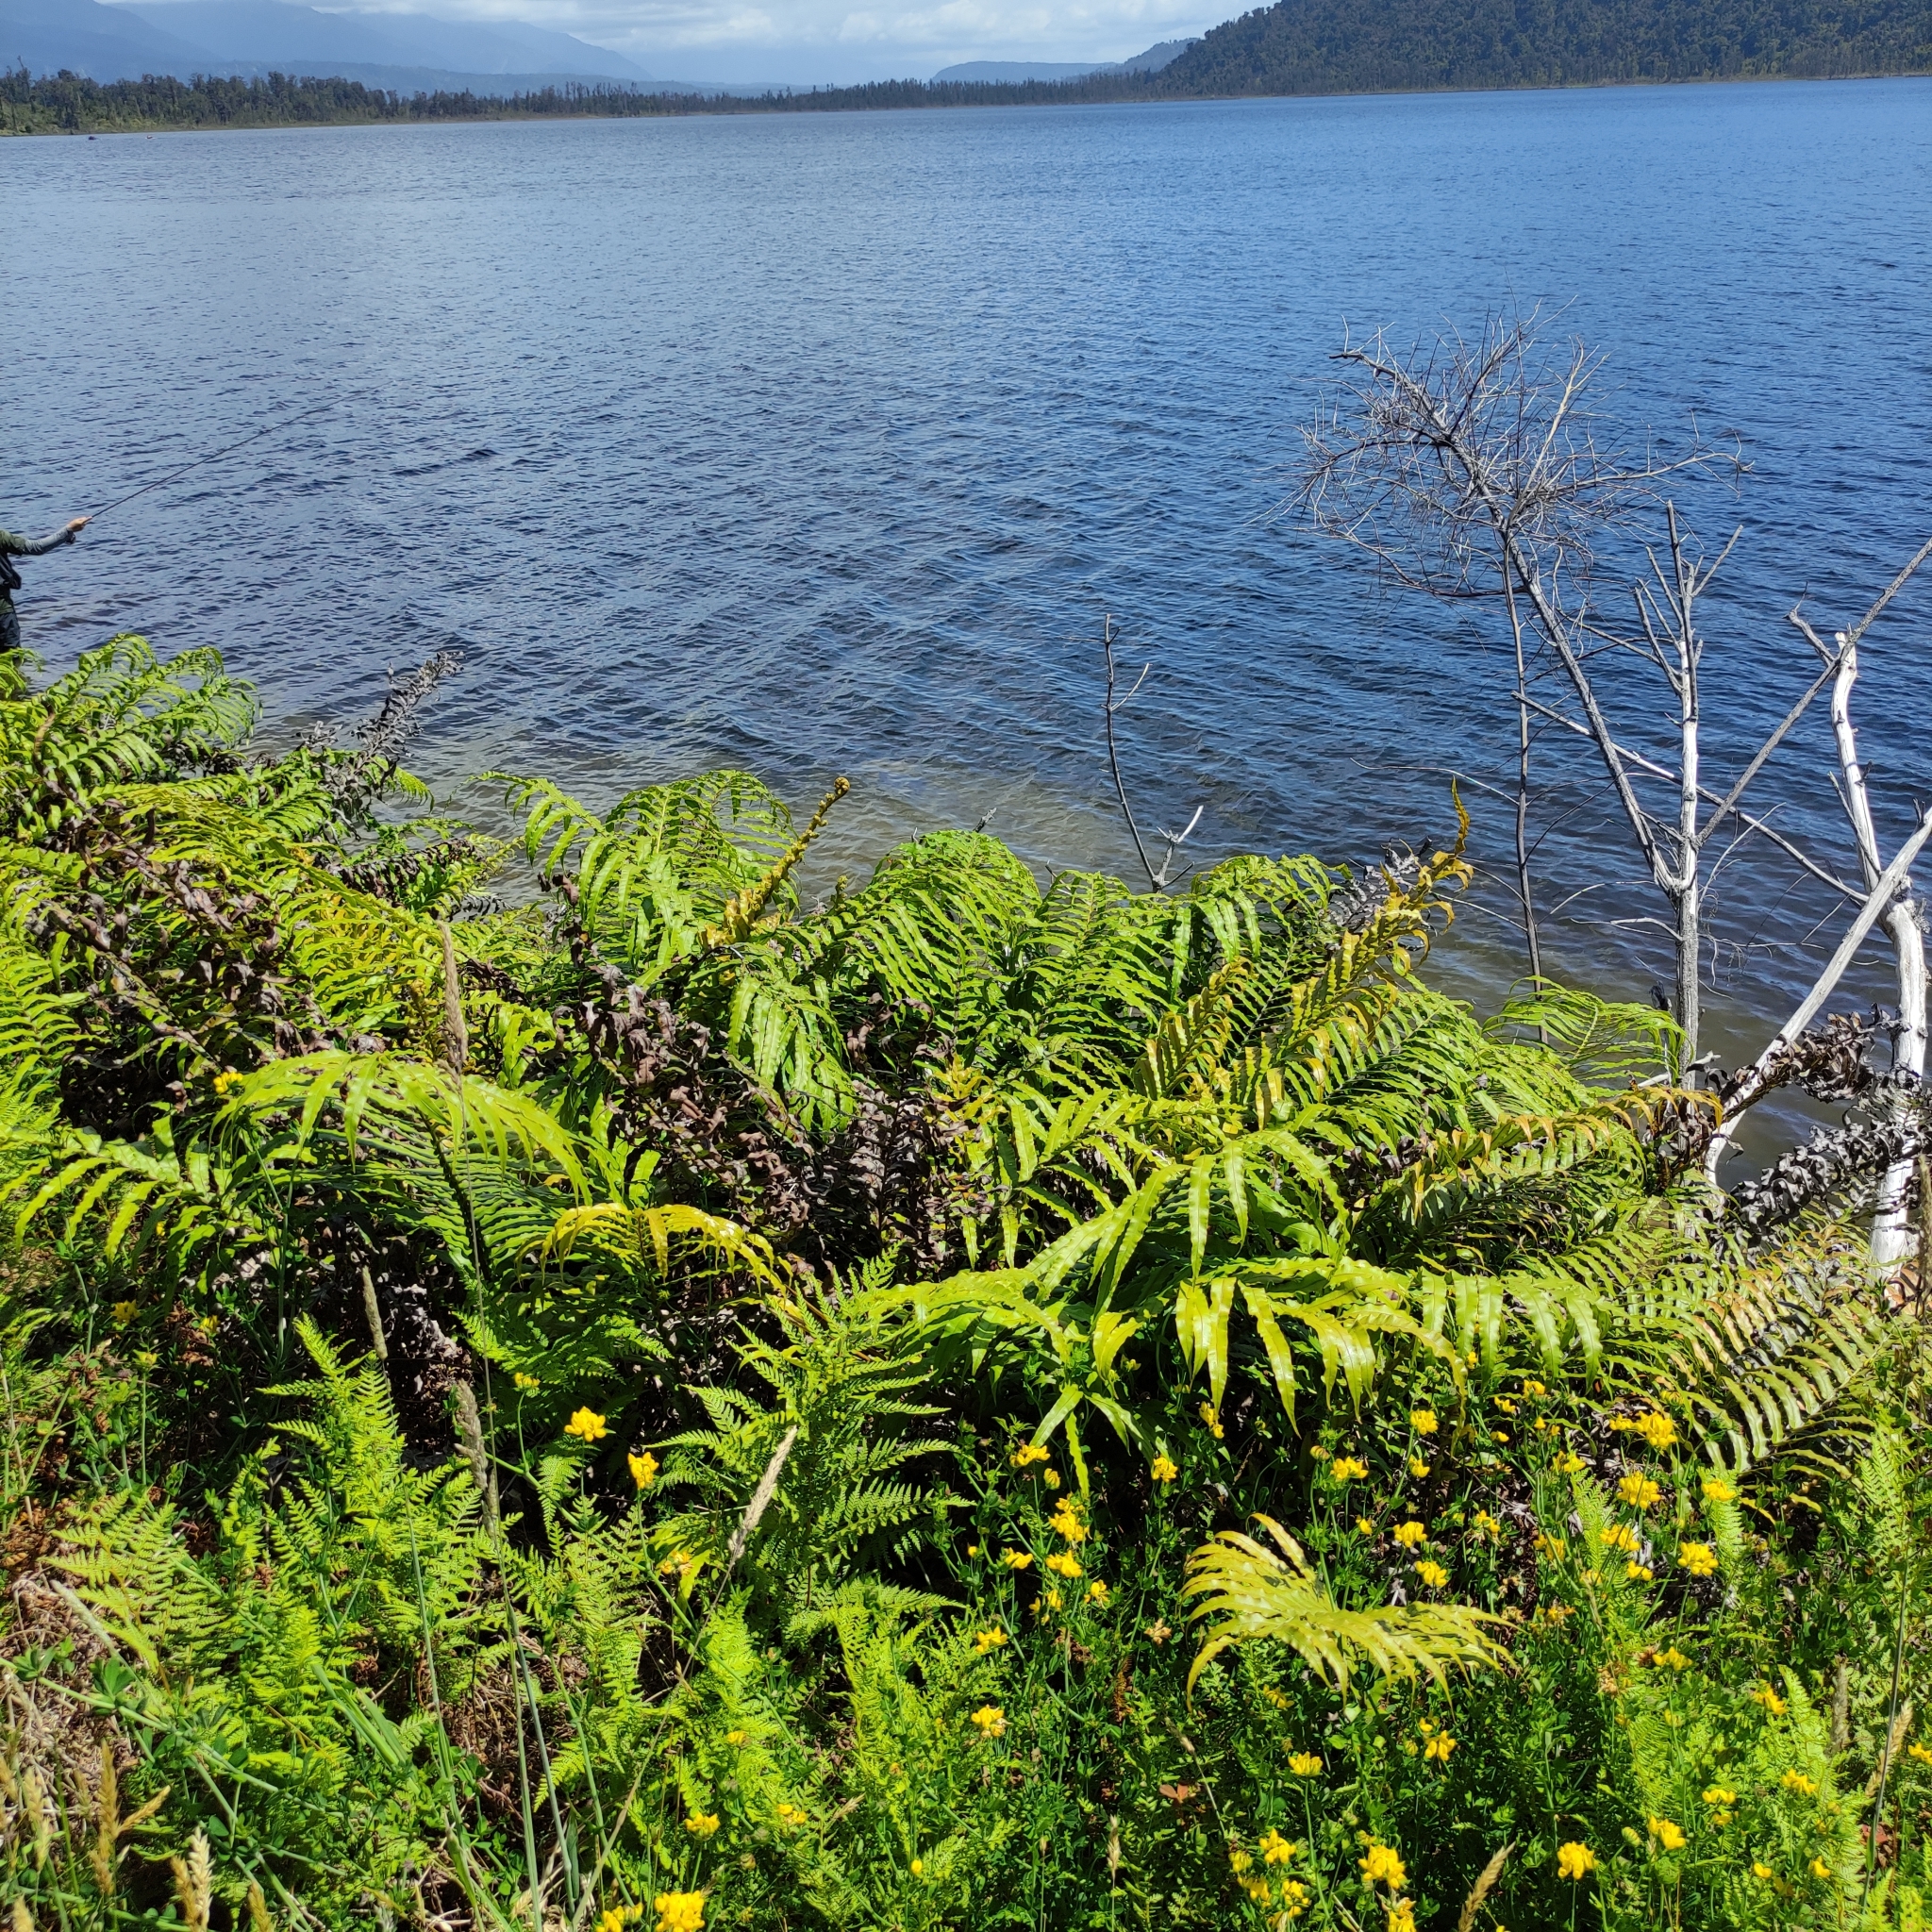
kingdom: Plantae
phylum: Tracheophyta
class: Polypodiopsida
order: Polypodiales
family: Blechnaceae
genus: Parablechnum
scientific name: Parablechnum novae-zelandiae
